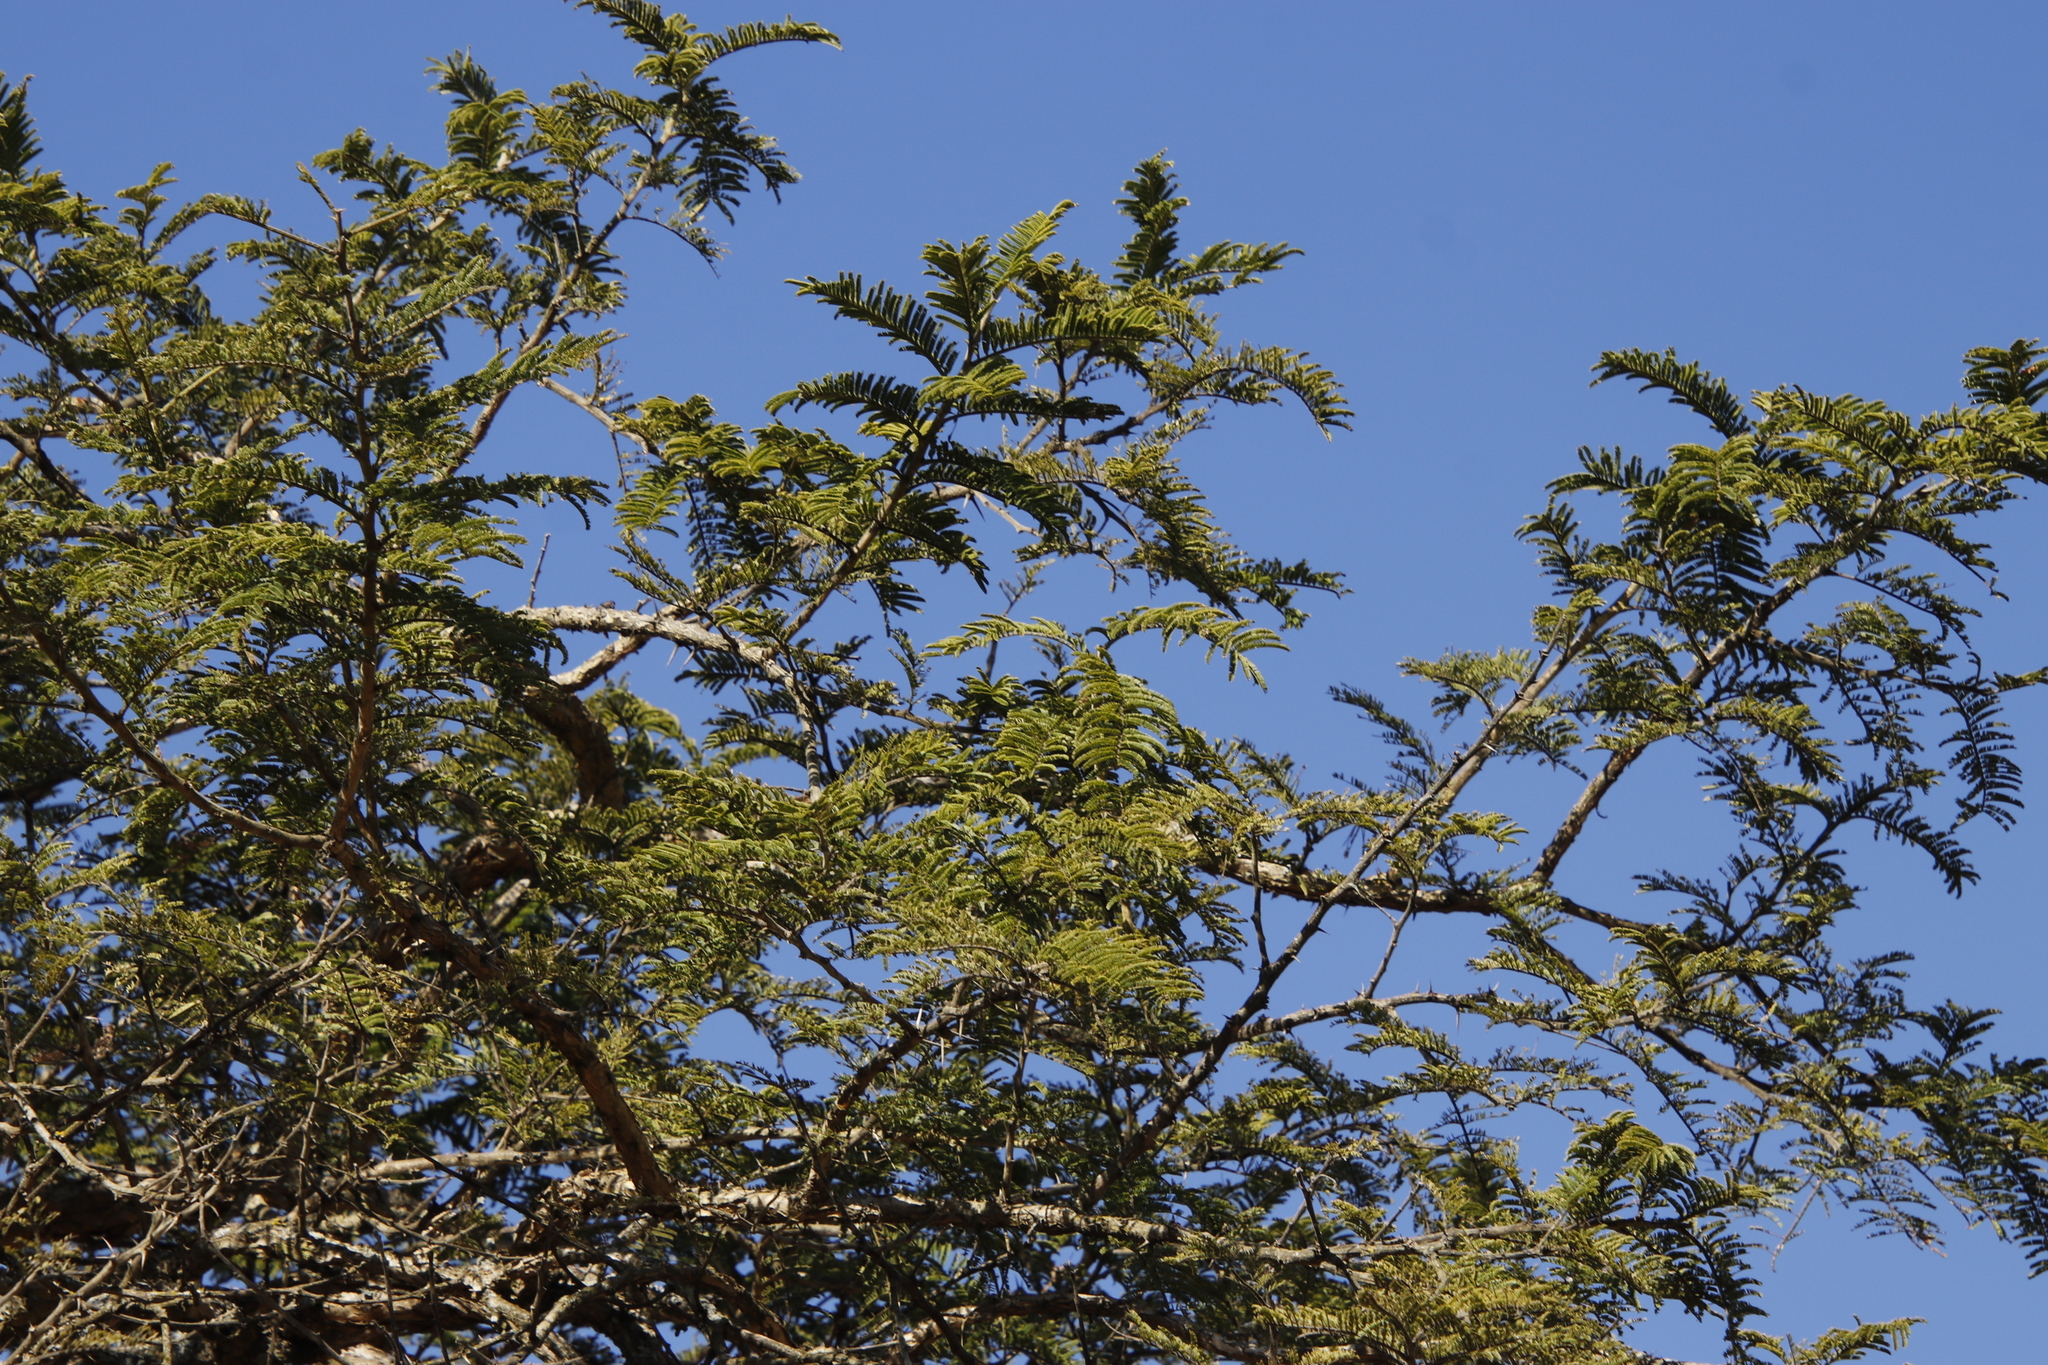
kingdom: Plantae
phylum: Tracheophyta
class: Magnoliopsida
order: Fabales
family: Fabaceae
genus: Vachellia
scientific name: Vachellia sieberiana
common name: Flat-topped thorn
